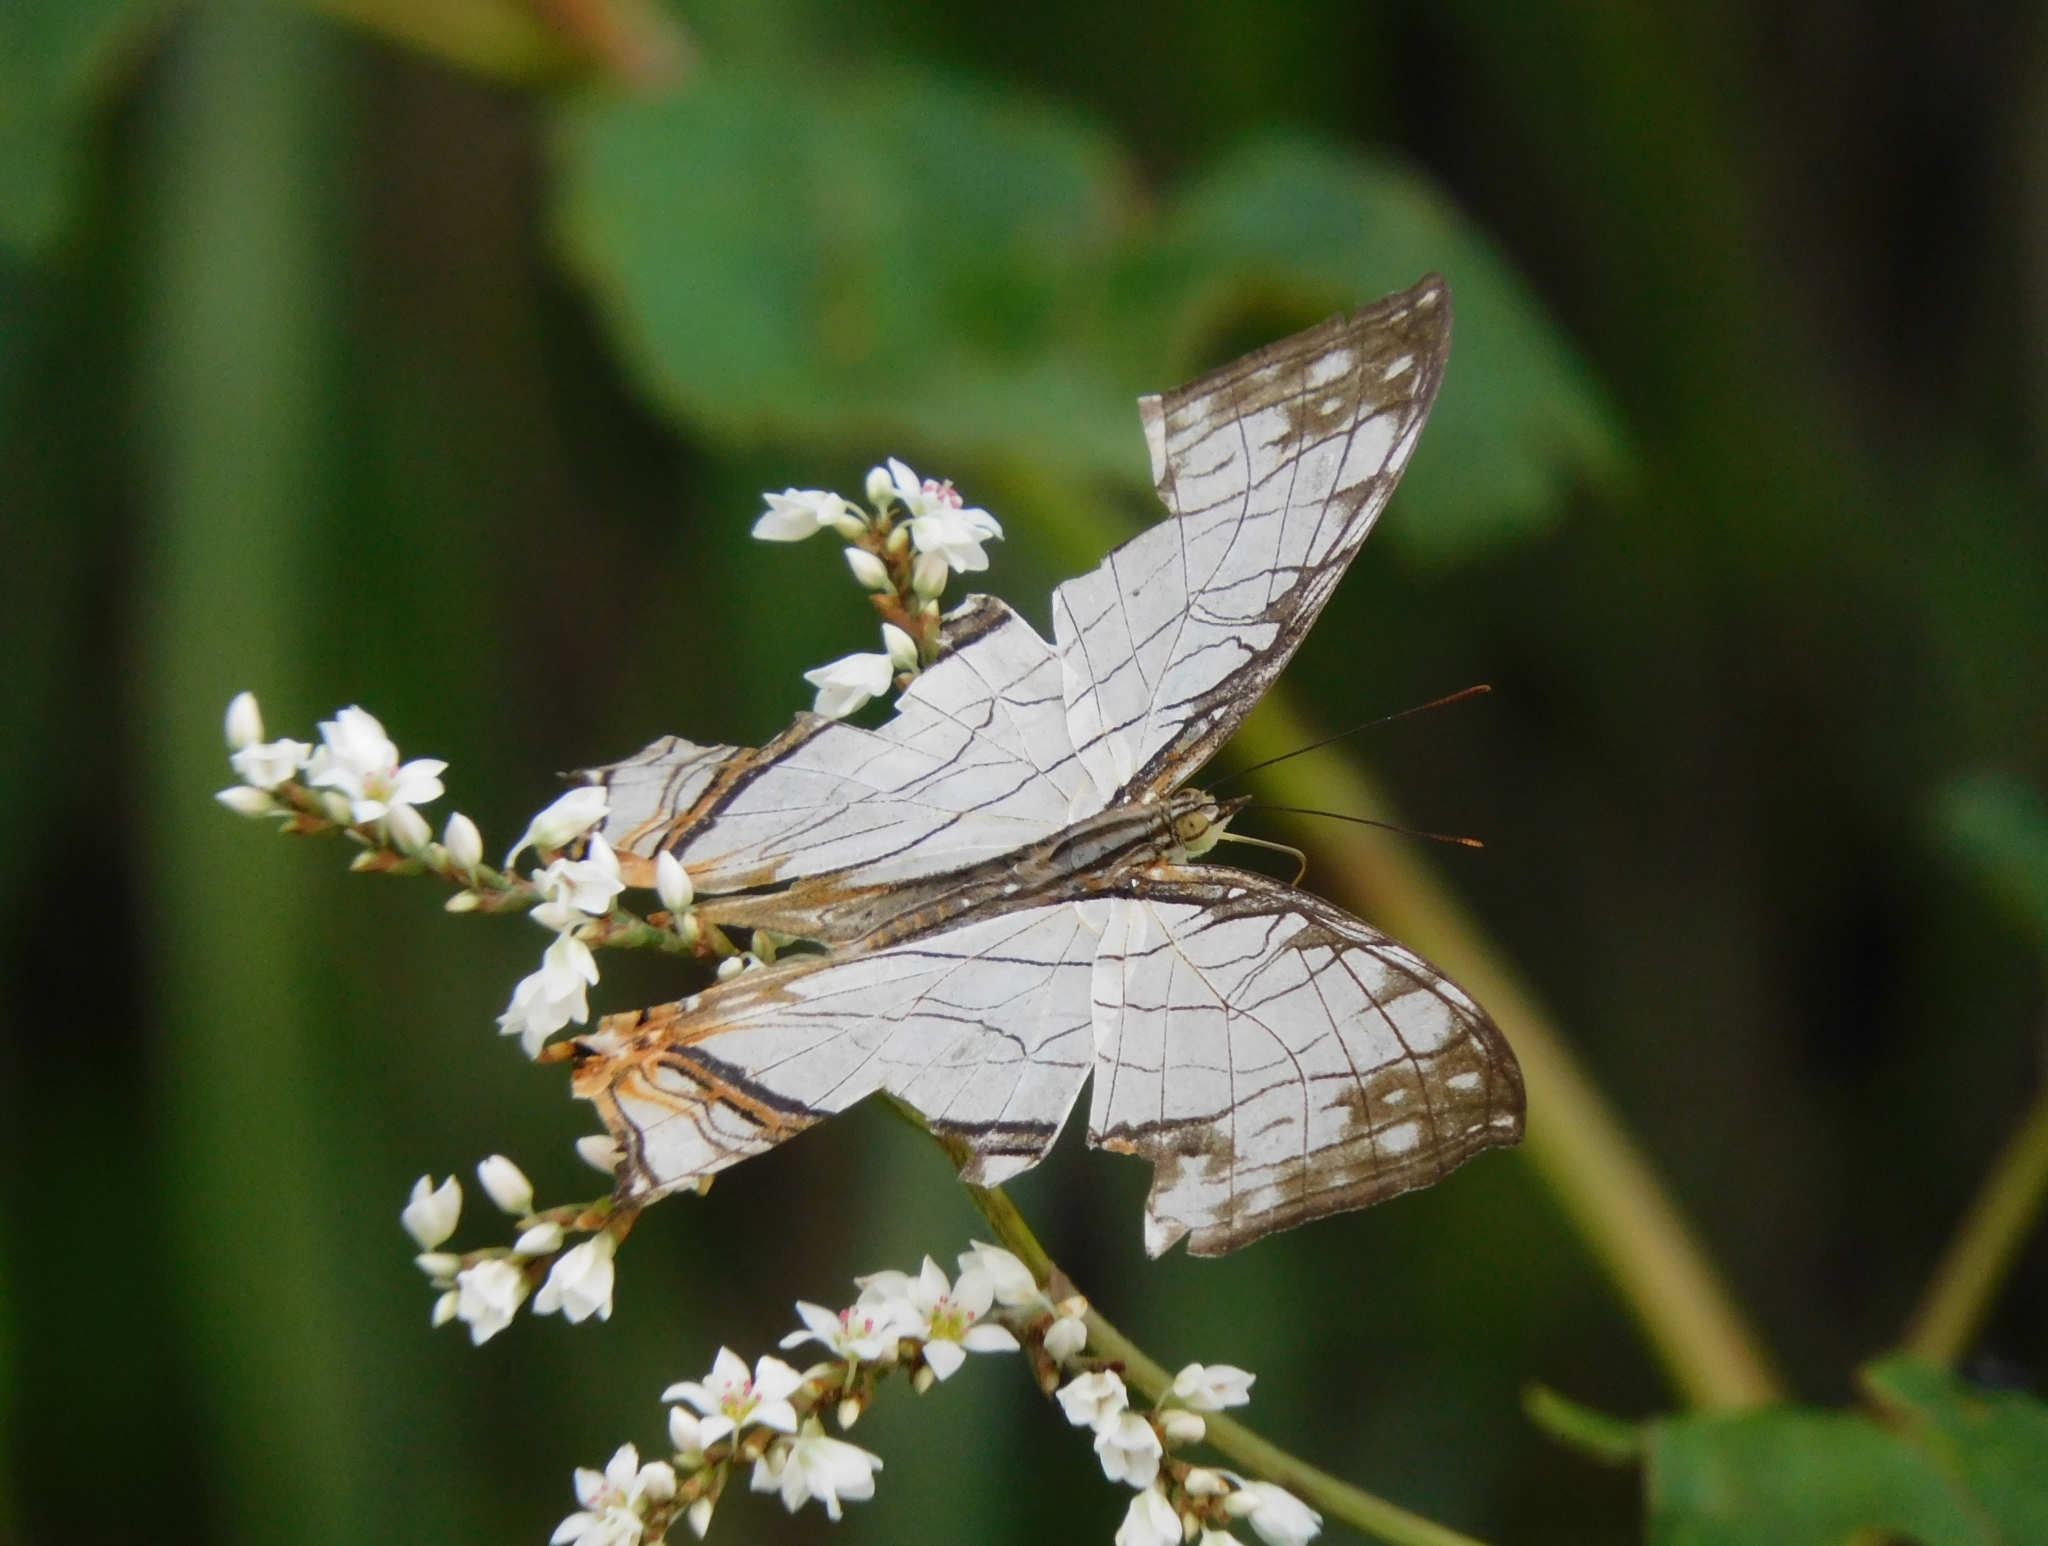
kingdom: Animalia
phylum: Arthropoda
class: Insecta
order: Lepidoptera
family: Nymphalidae
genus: Cyrestis
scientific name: Cyrestis thyodamas
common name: Common mapwing
